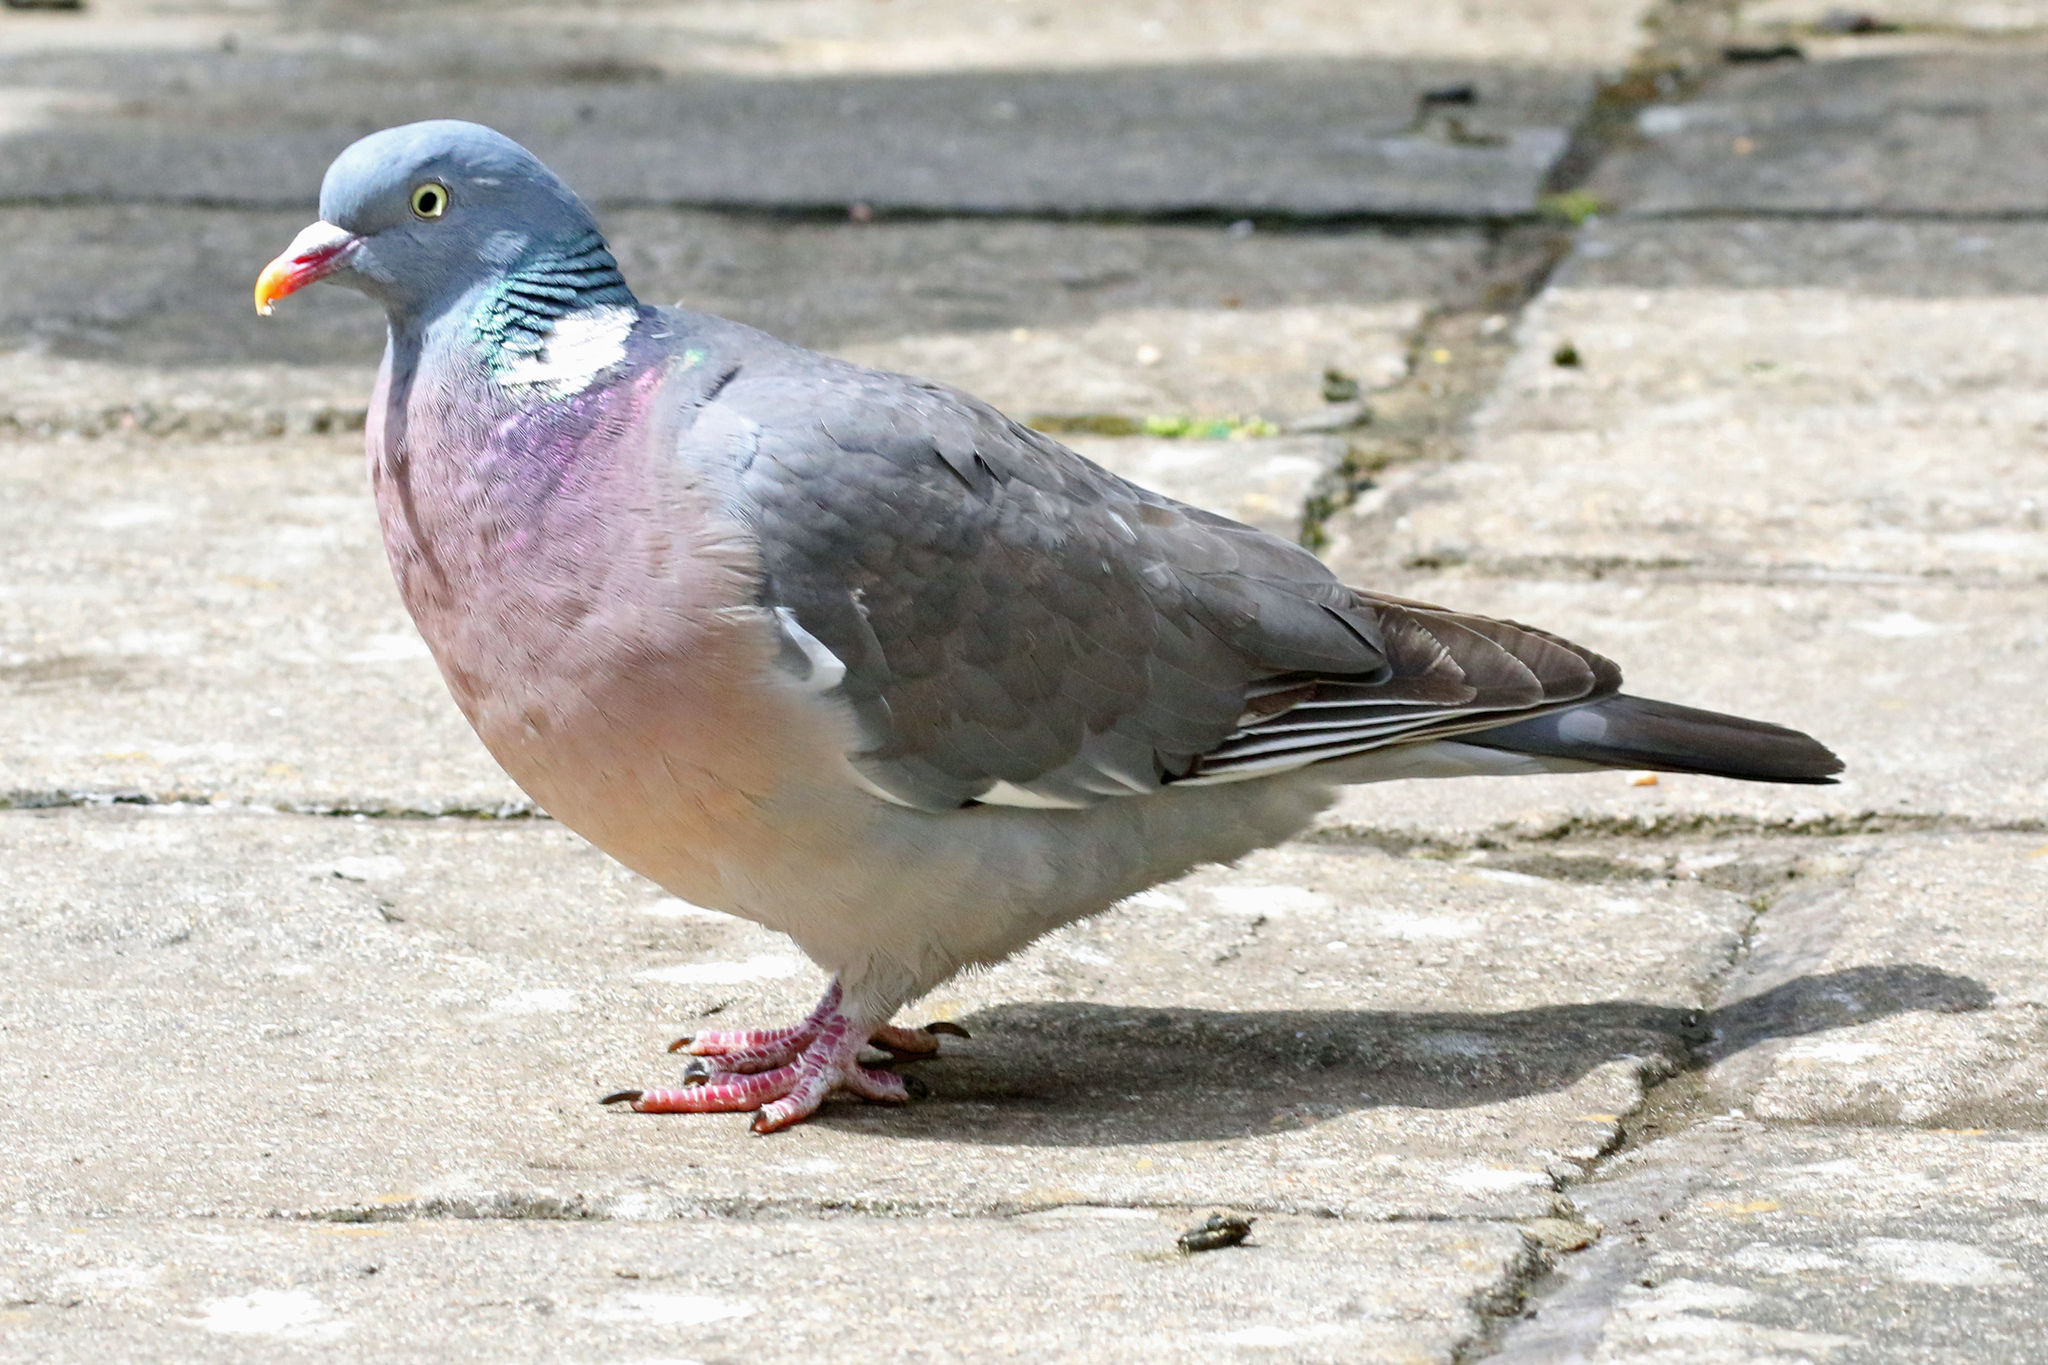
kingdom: Animalia
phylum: Chordata
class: Aves
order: Columbiformes
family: Columbidae
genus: Columba
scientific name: Columba palumbus
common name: Common wood pigeon
